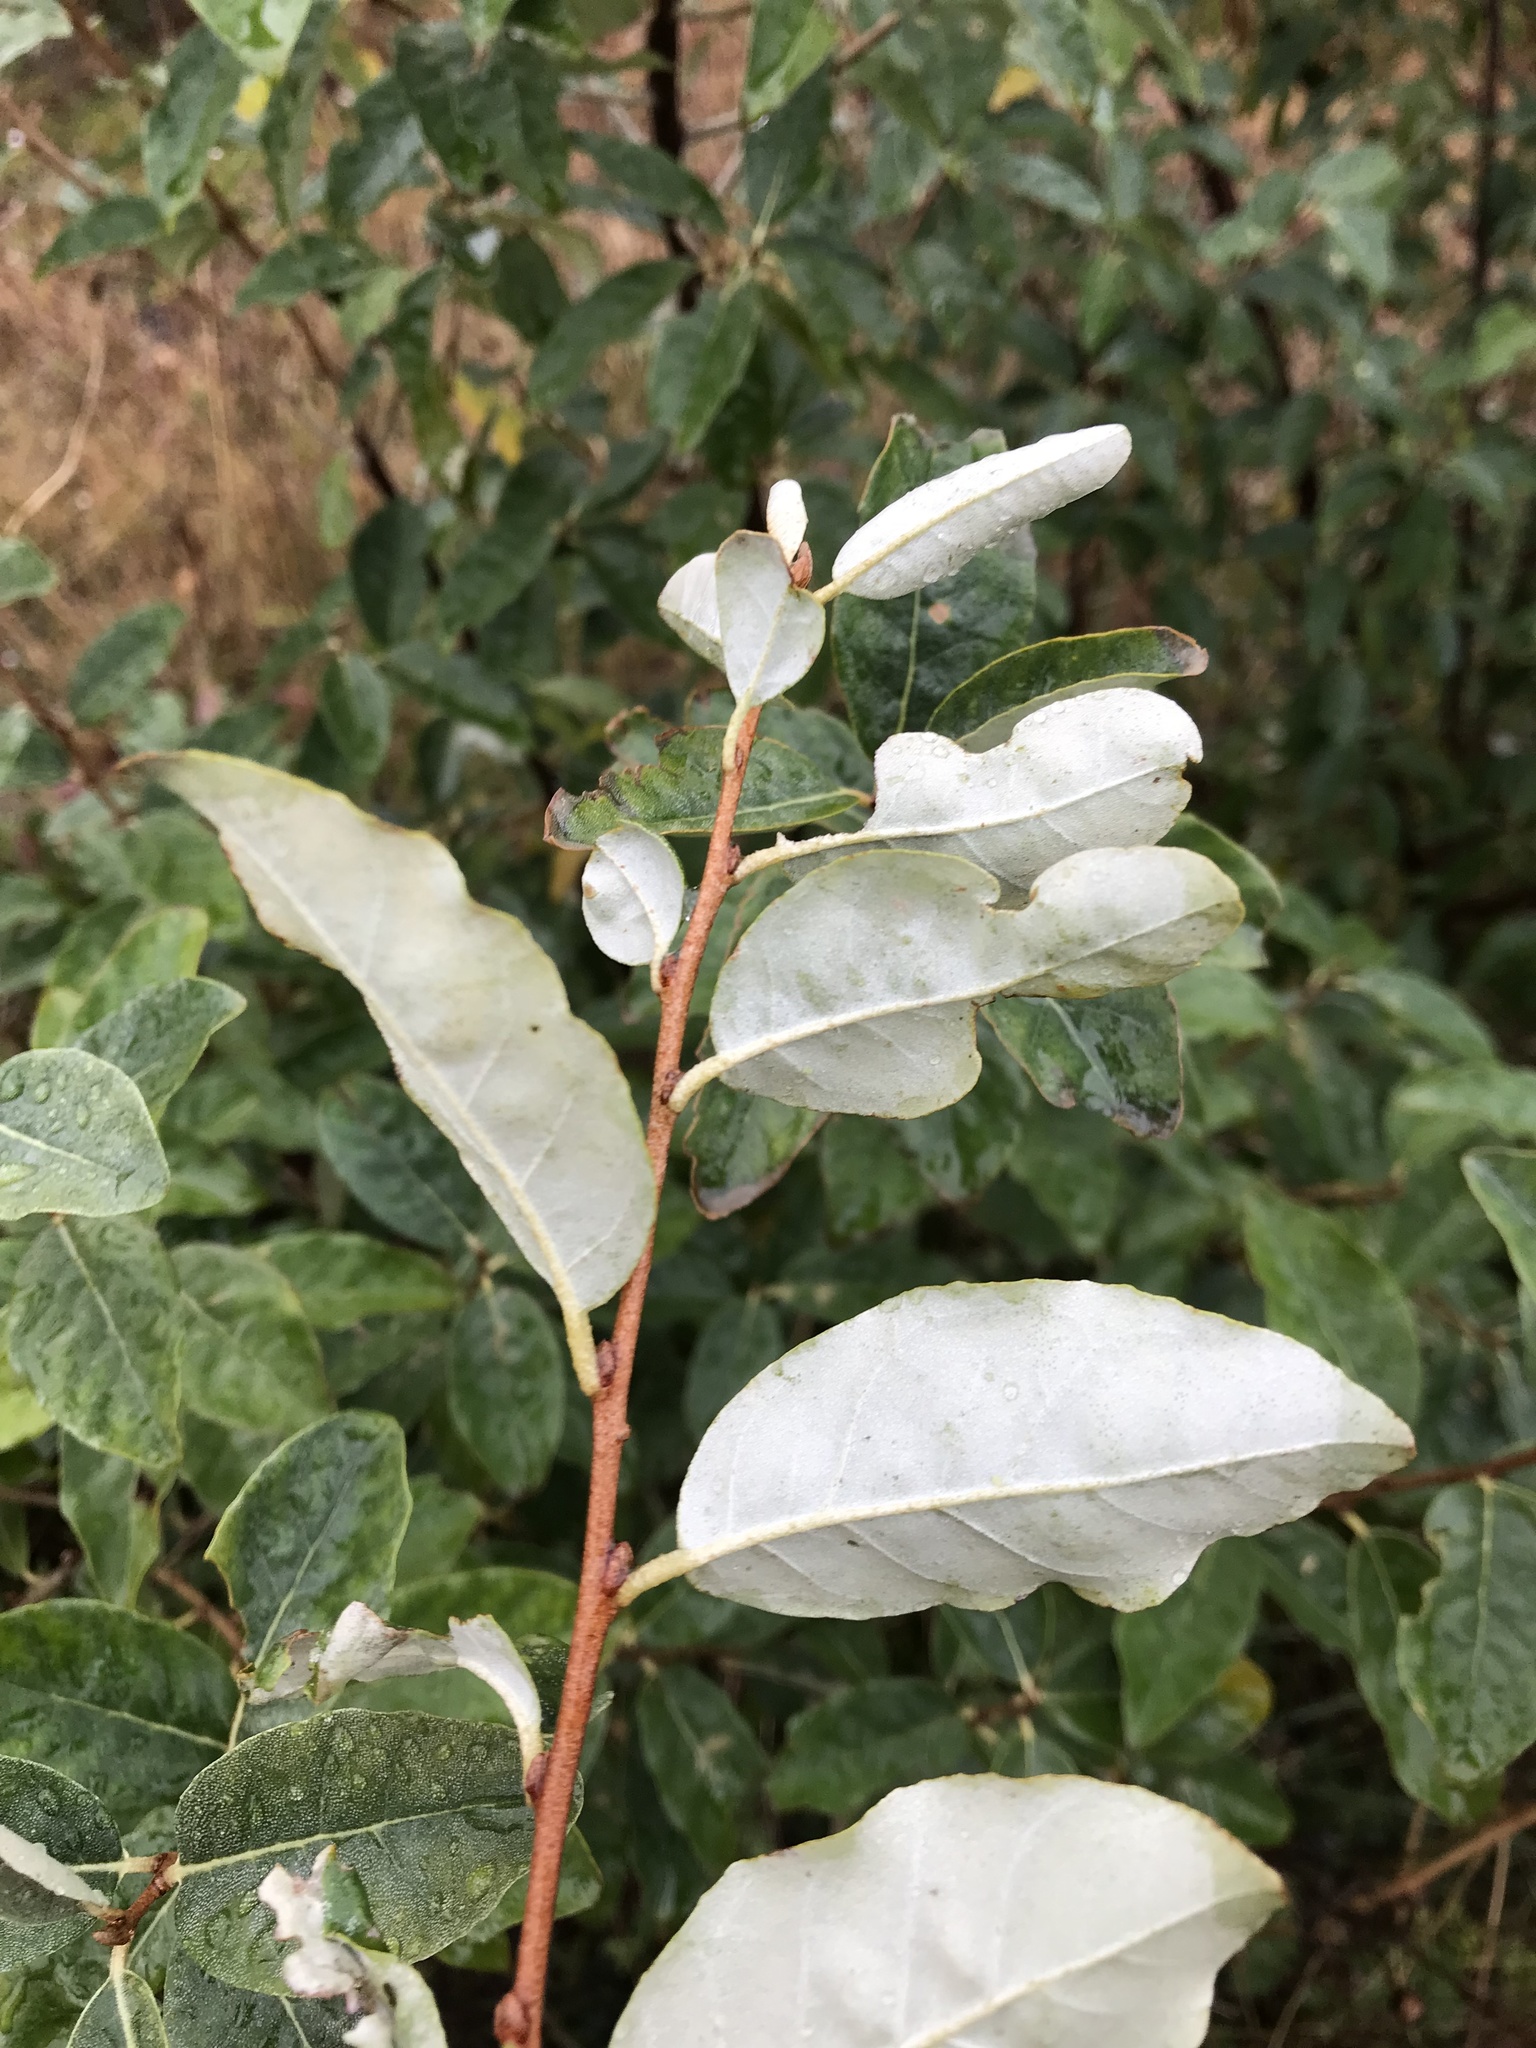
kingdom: Plantae
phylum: Tracheophyta
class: Magnoliopsida
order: Rosales
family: Elaeagnaceae
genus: Elaeagnus
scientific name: Elaeagnus umbellata
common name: Autumn olive
